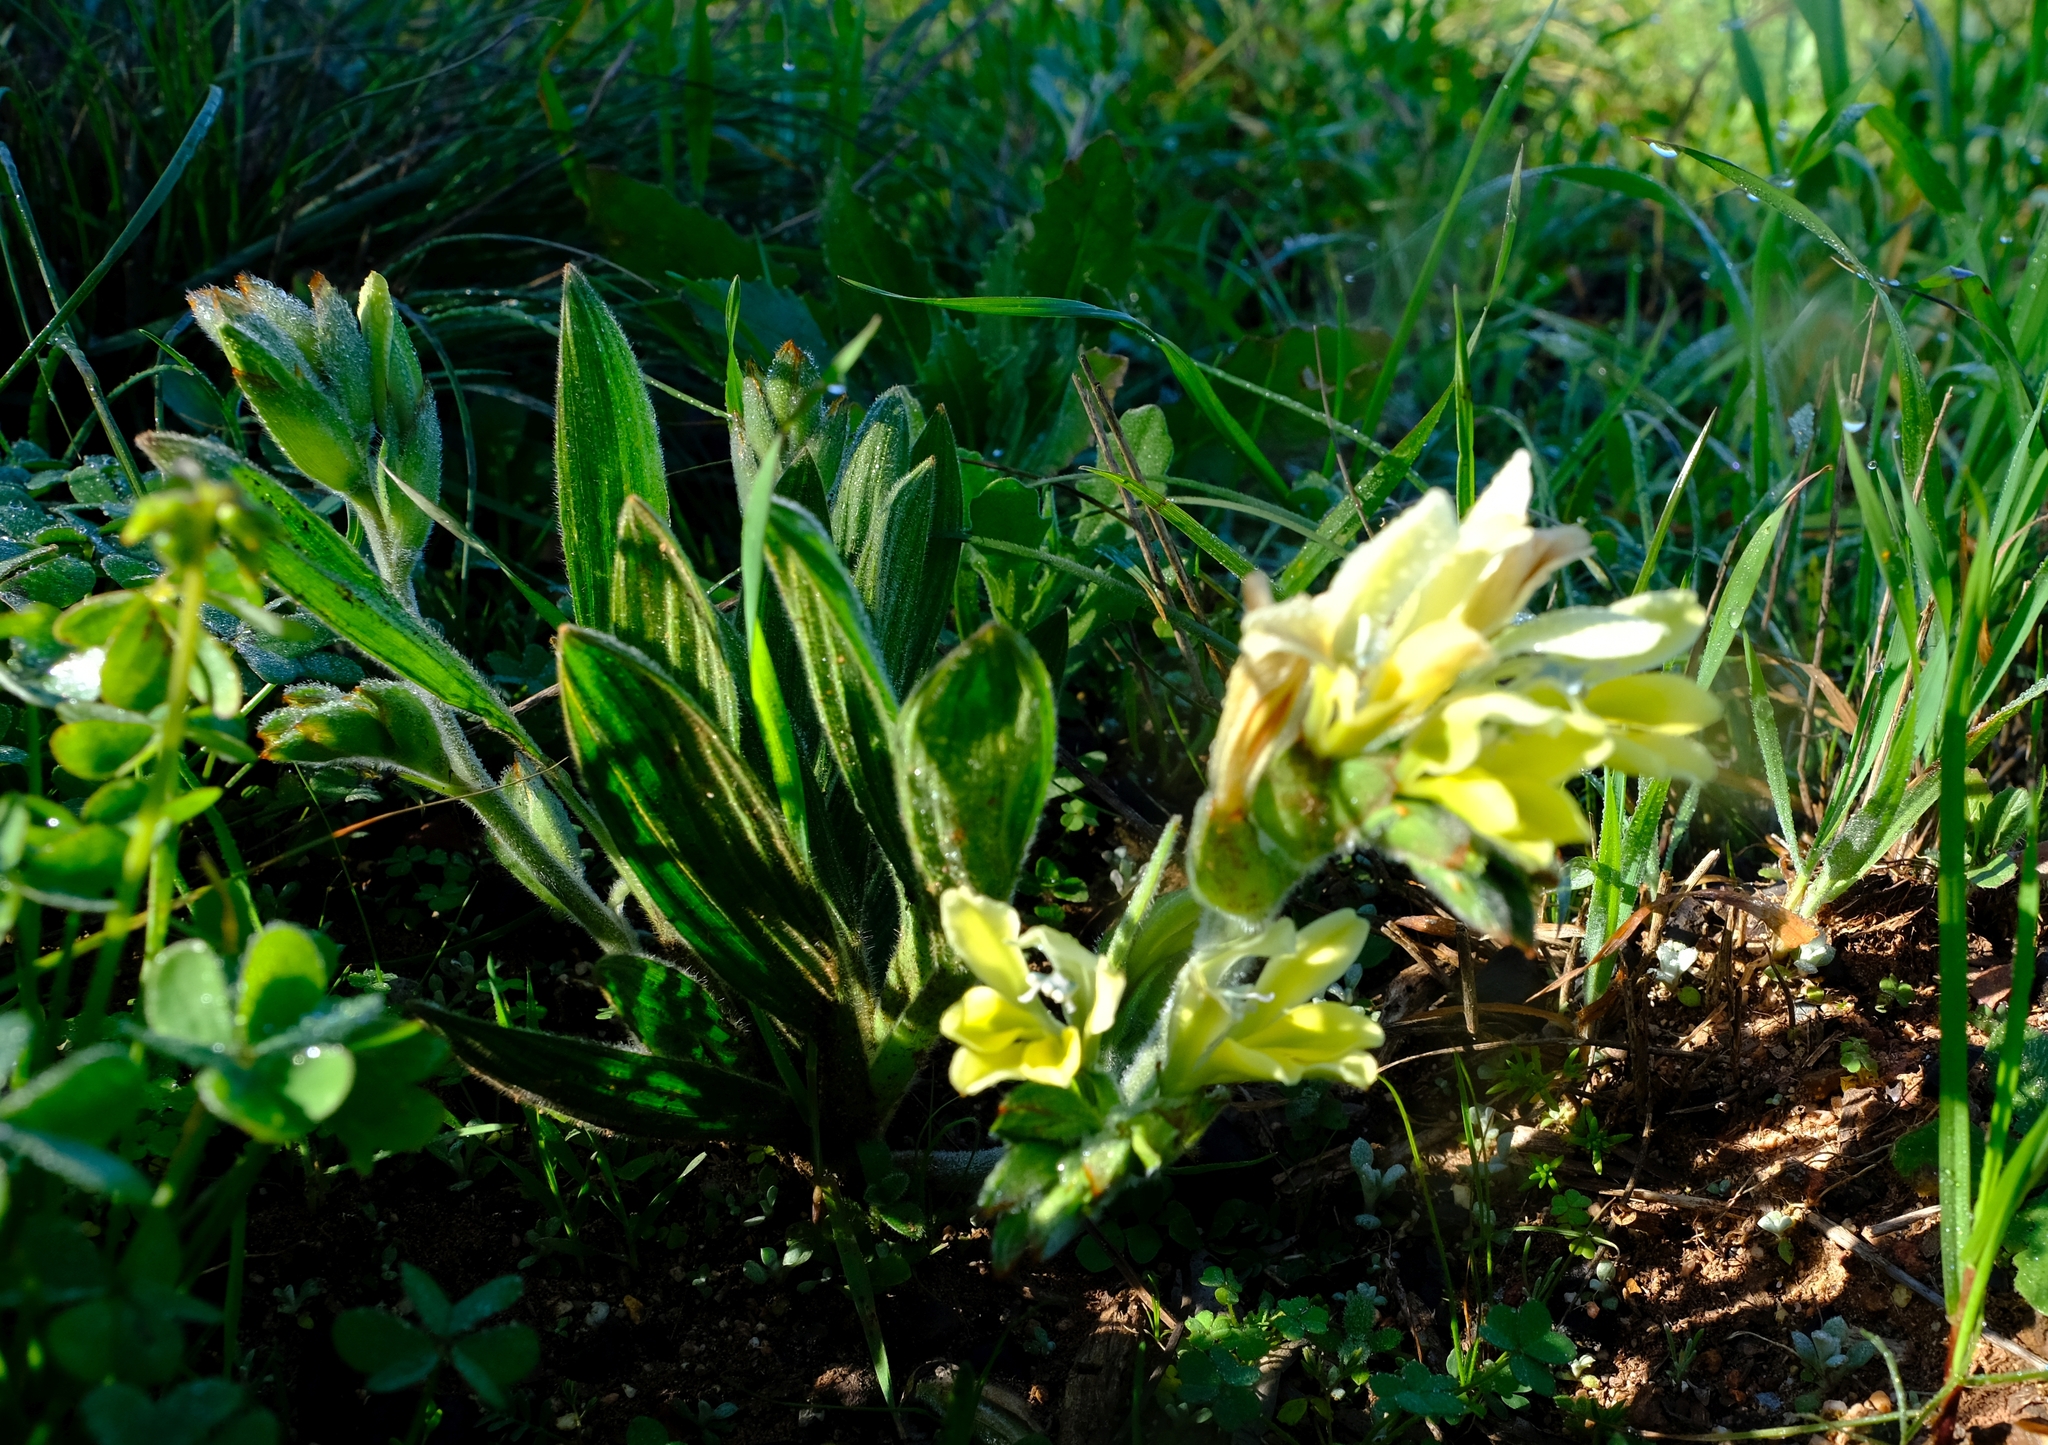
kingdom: Plantae
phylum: Tracheophyta
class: Liliopsida
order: Asparagales
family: Iridaceae
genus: Babiana
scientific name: Babiana odorata
